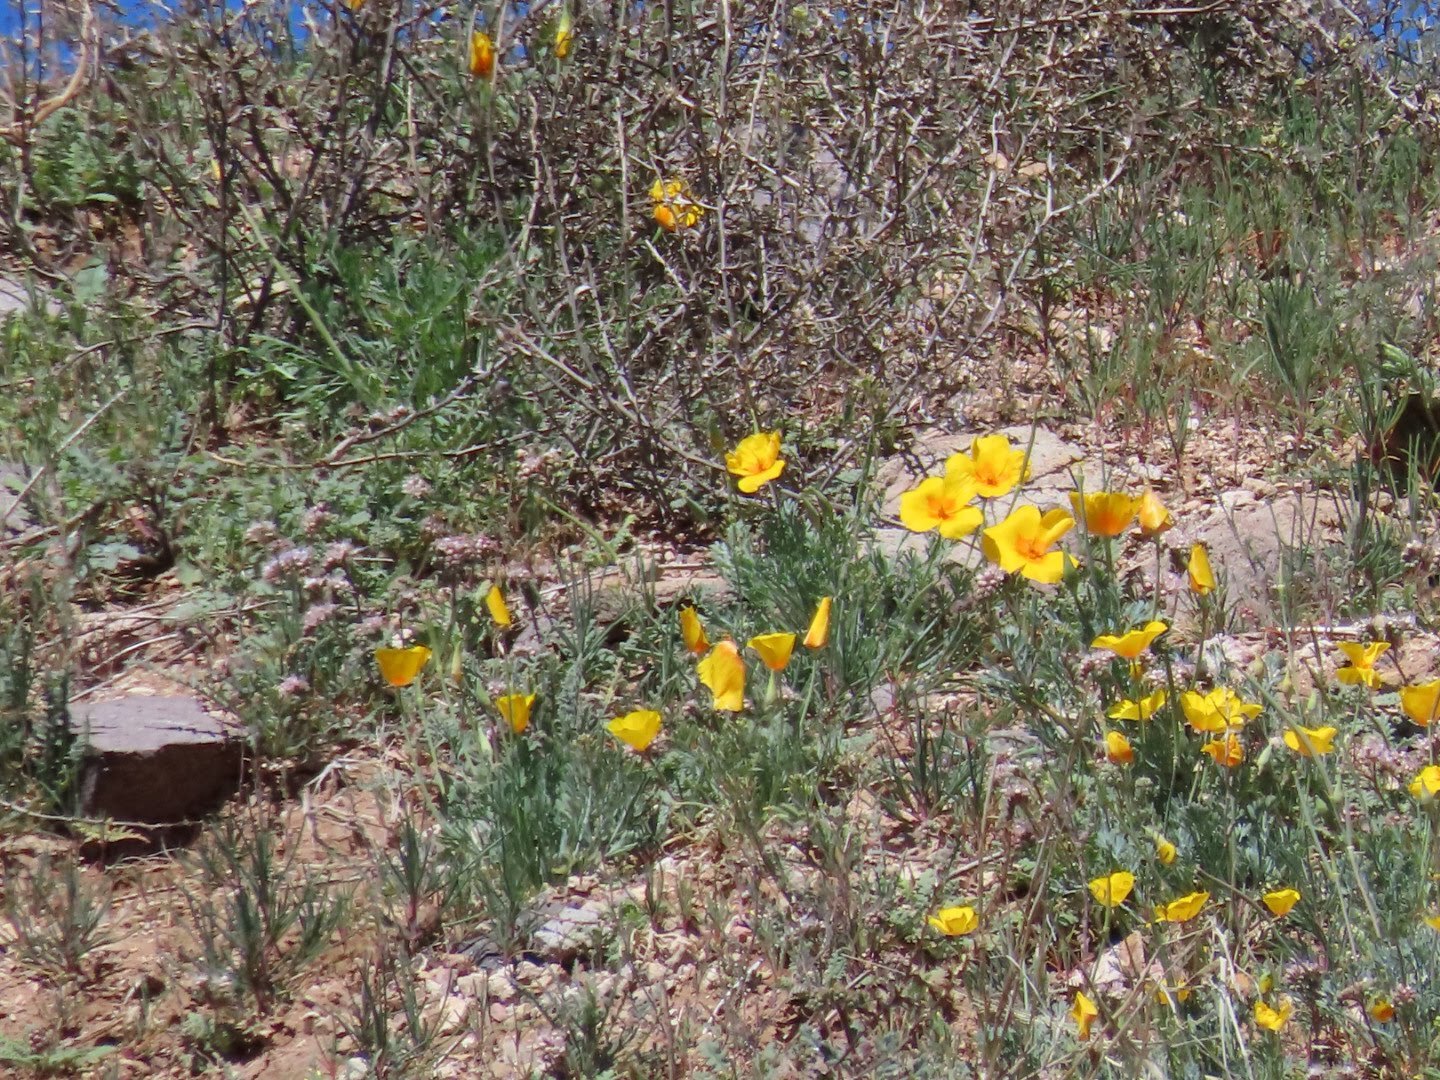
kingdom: Plantae
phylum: Tracheophyta
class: Magnoliopsida
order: Ranunculales
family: Papaveraceae
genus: Eschscholzia
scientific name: Eschscholzia californica
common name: California poppy
